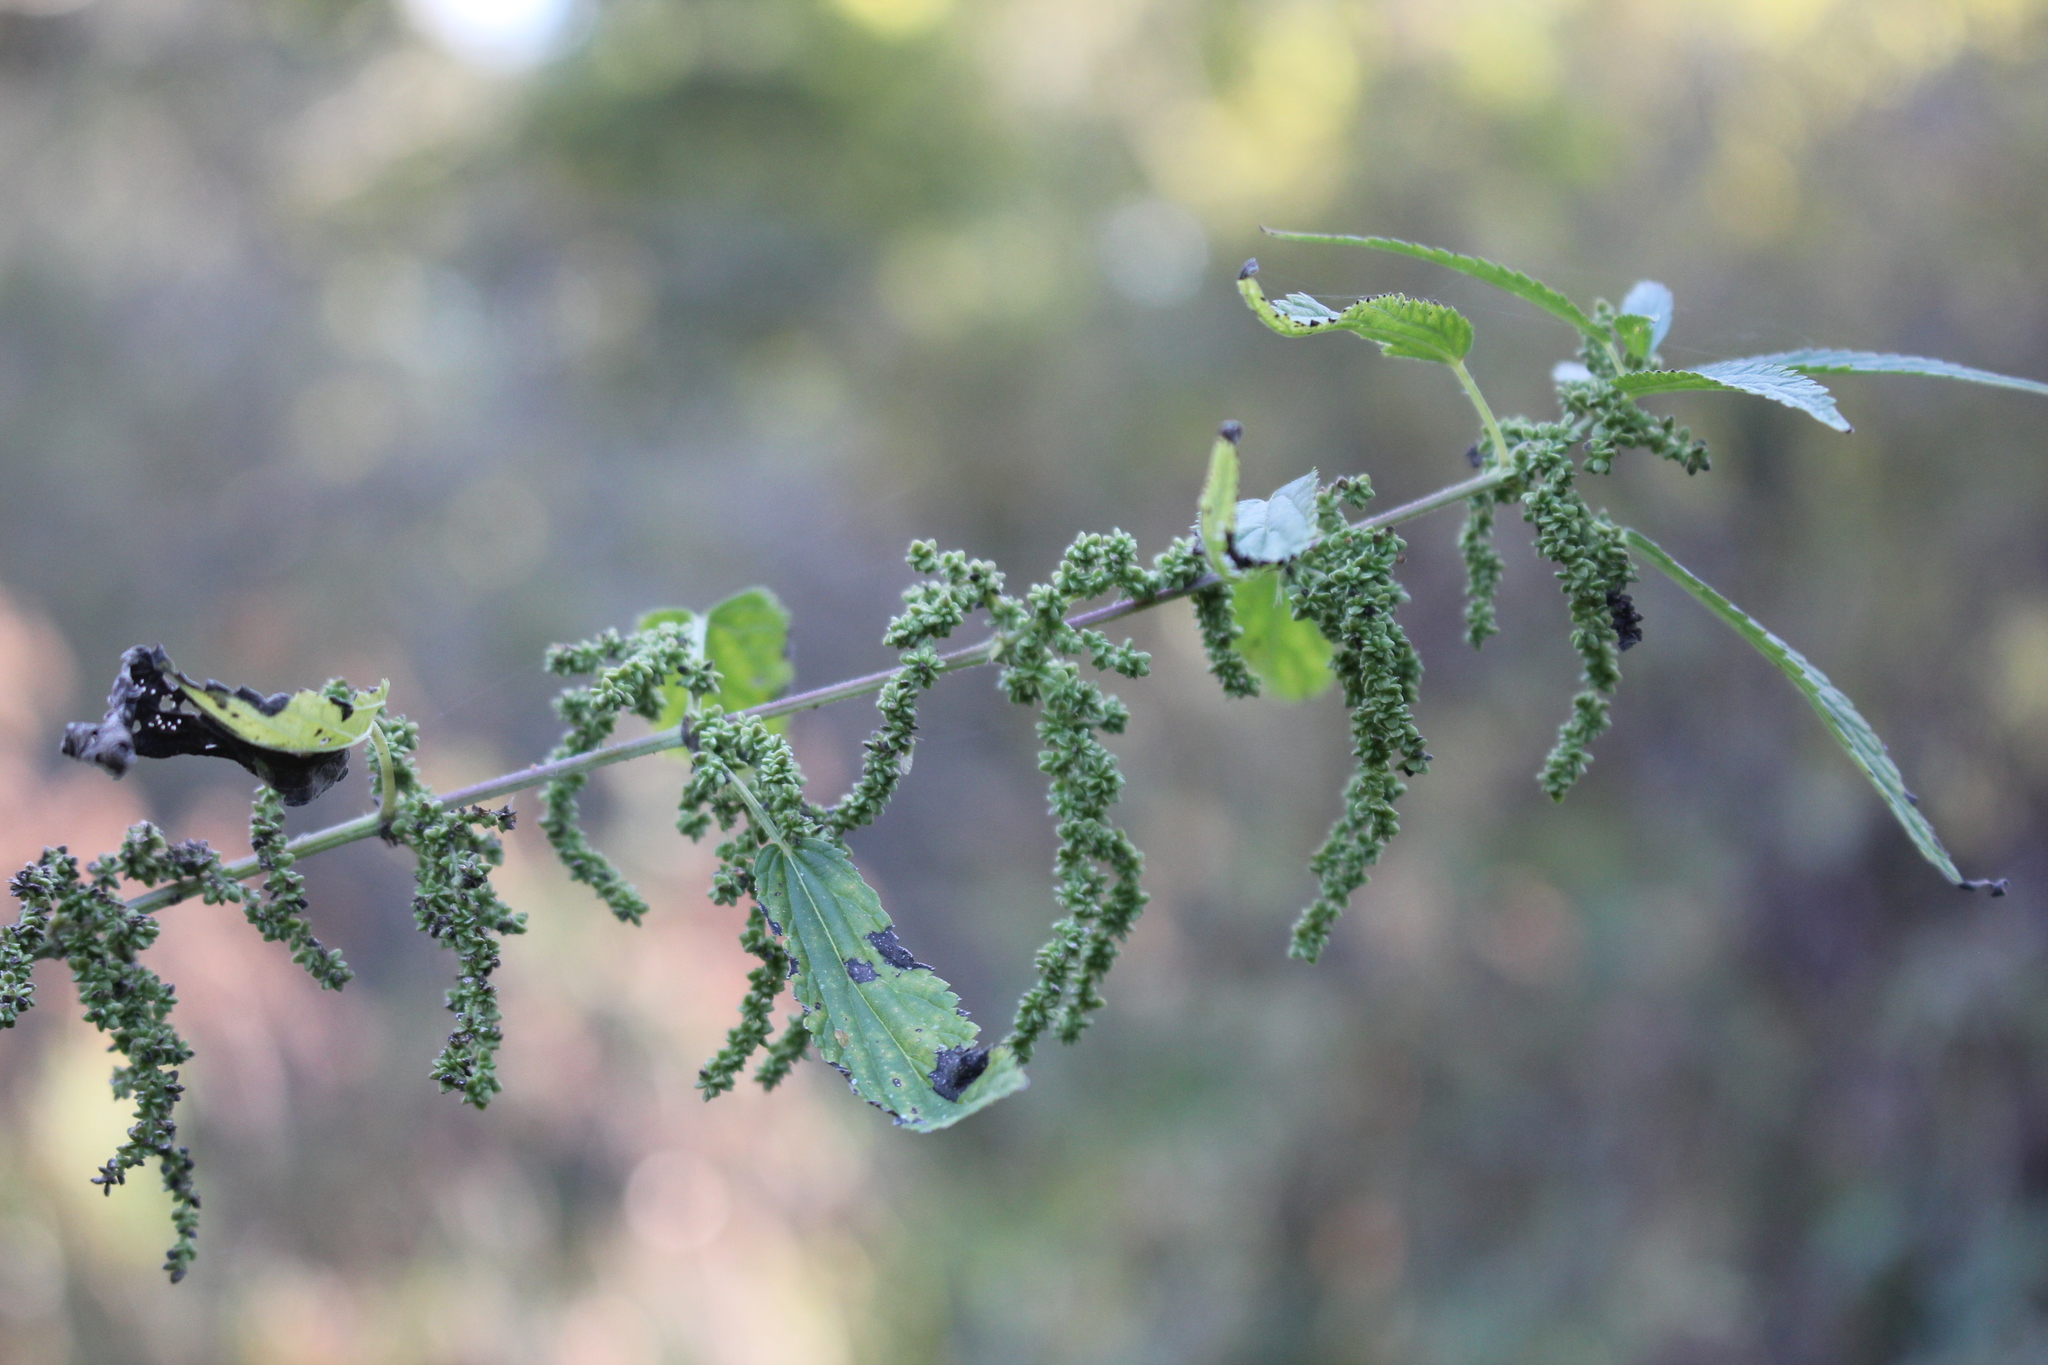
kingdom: Plantae
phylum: Tracheophyta
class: Magnoliopsida
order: Rosales
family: Urticaceae
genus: Urtica
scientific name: Urtica dioica
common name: Common nettle
